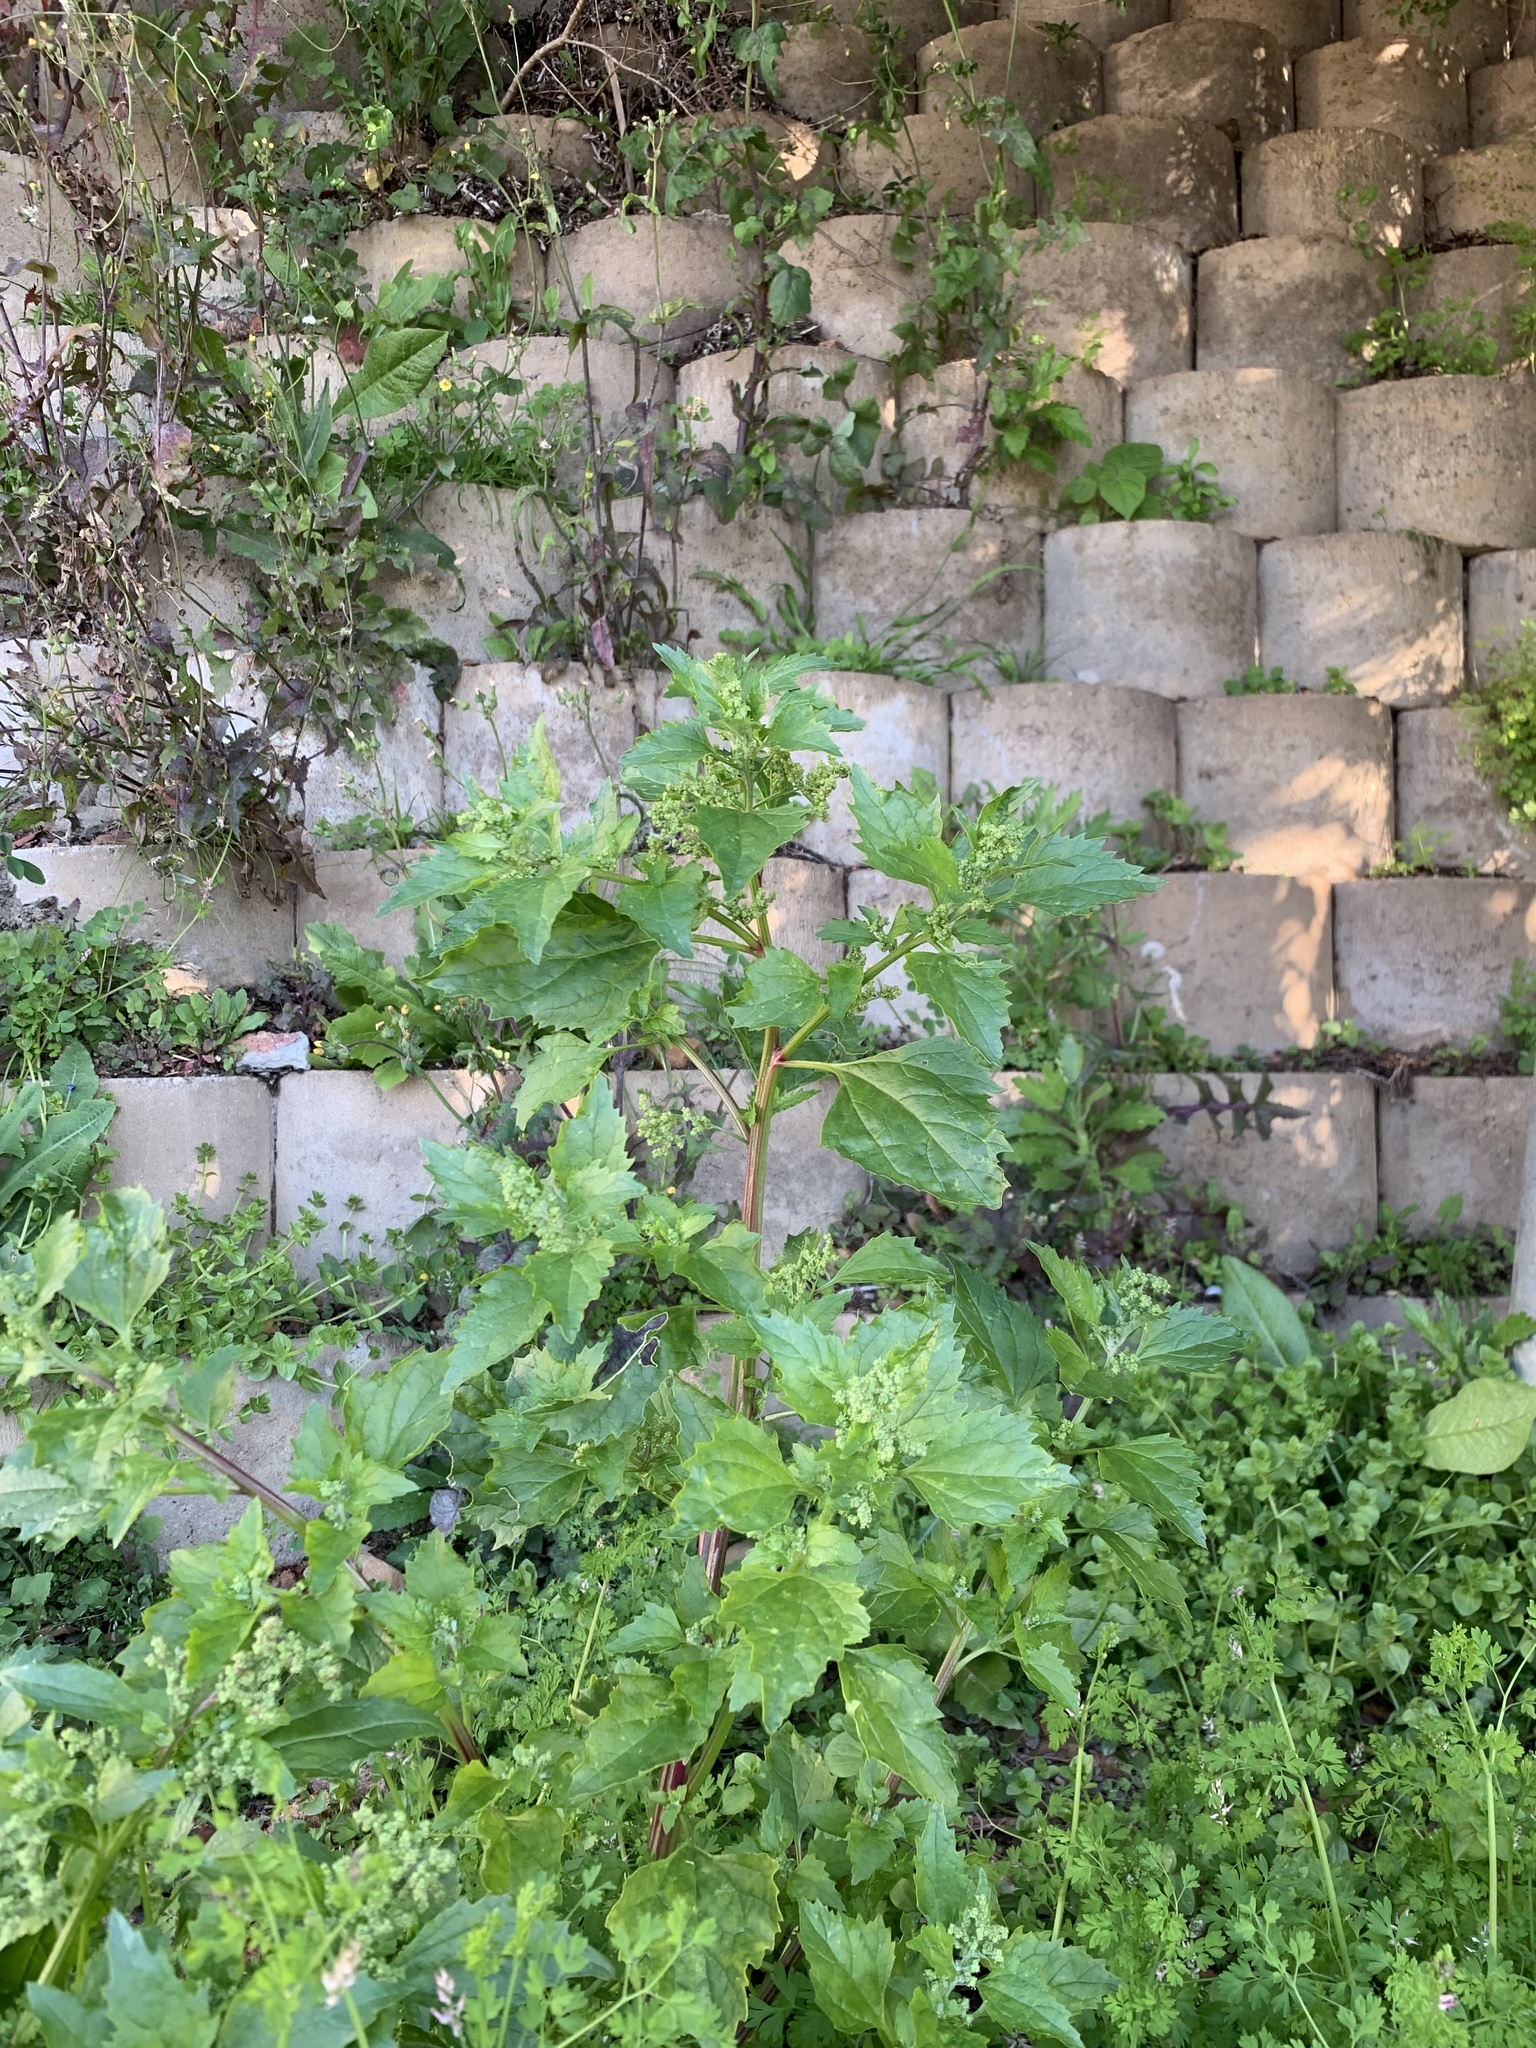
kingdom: Plantae
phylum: Tracheophyta
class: Magnoliopsida
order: Caryophyllales
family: Amaranthaceae
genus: Chenopodiastrum
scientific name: Chenopodiastrum murale
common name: Sowbane
